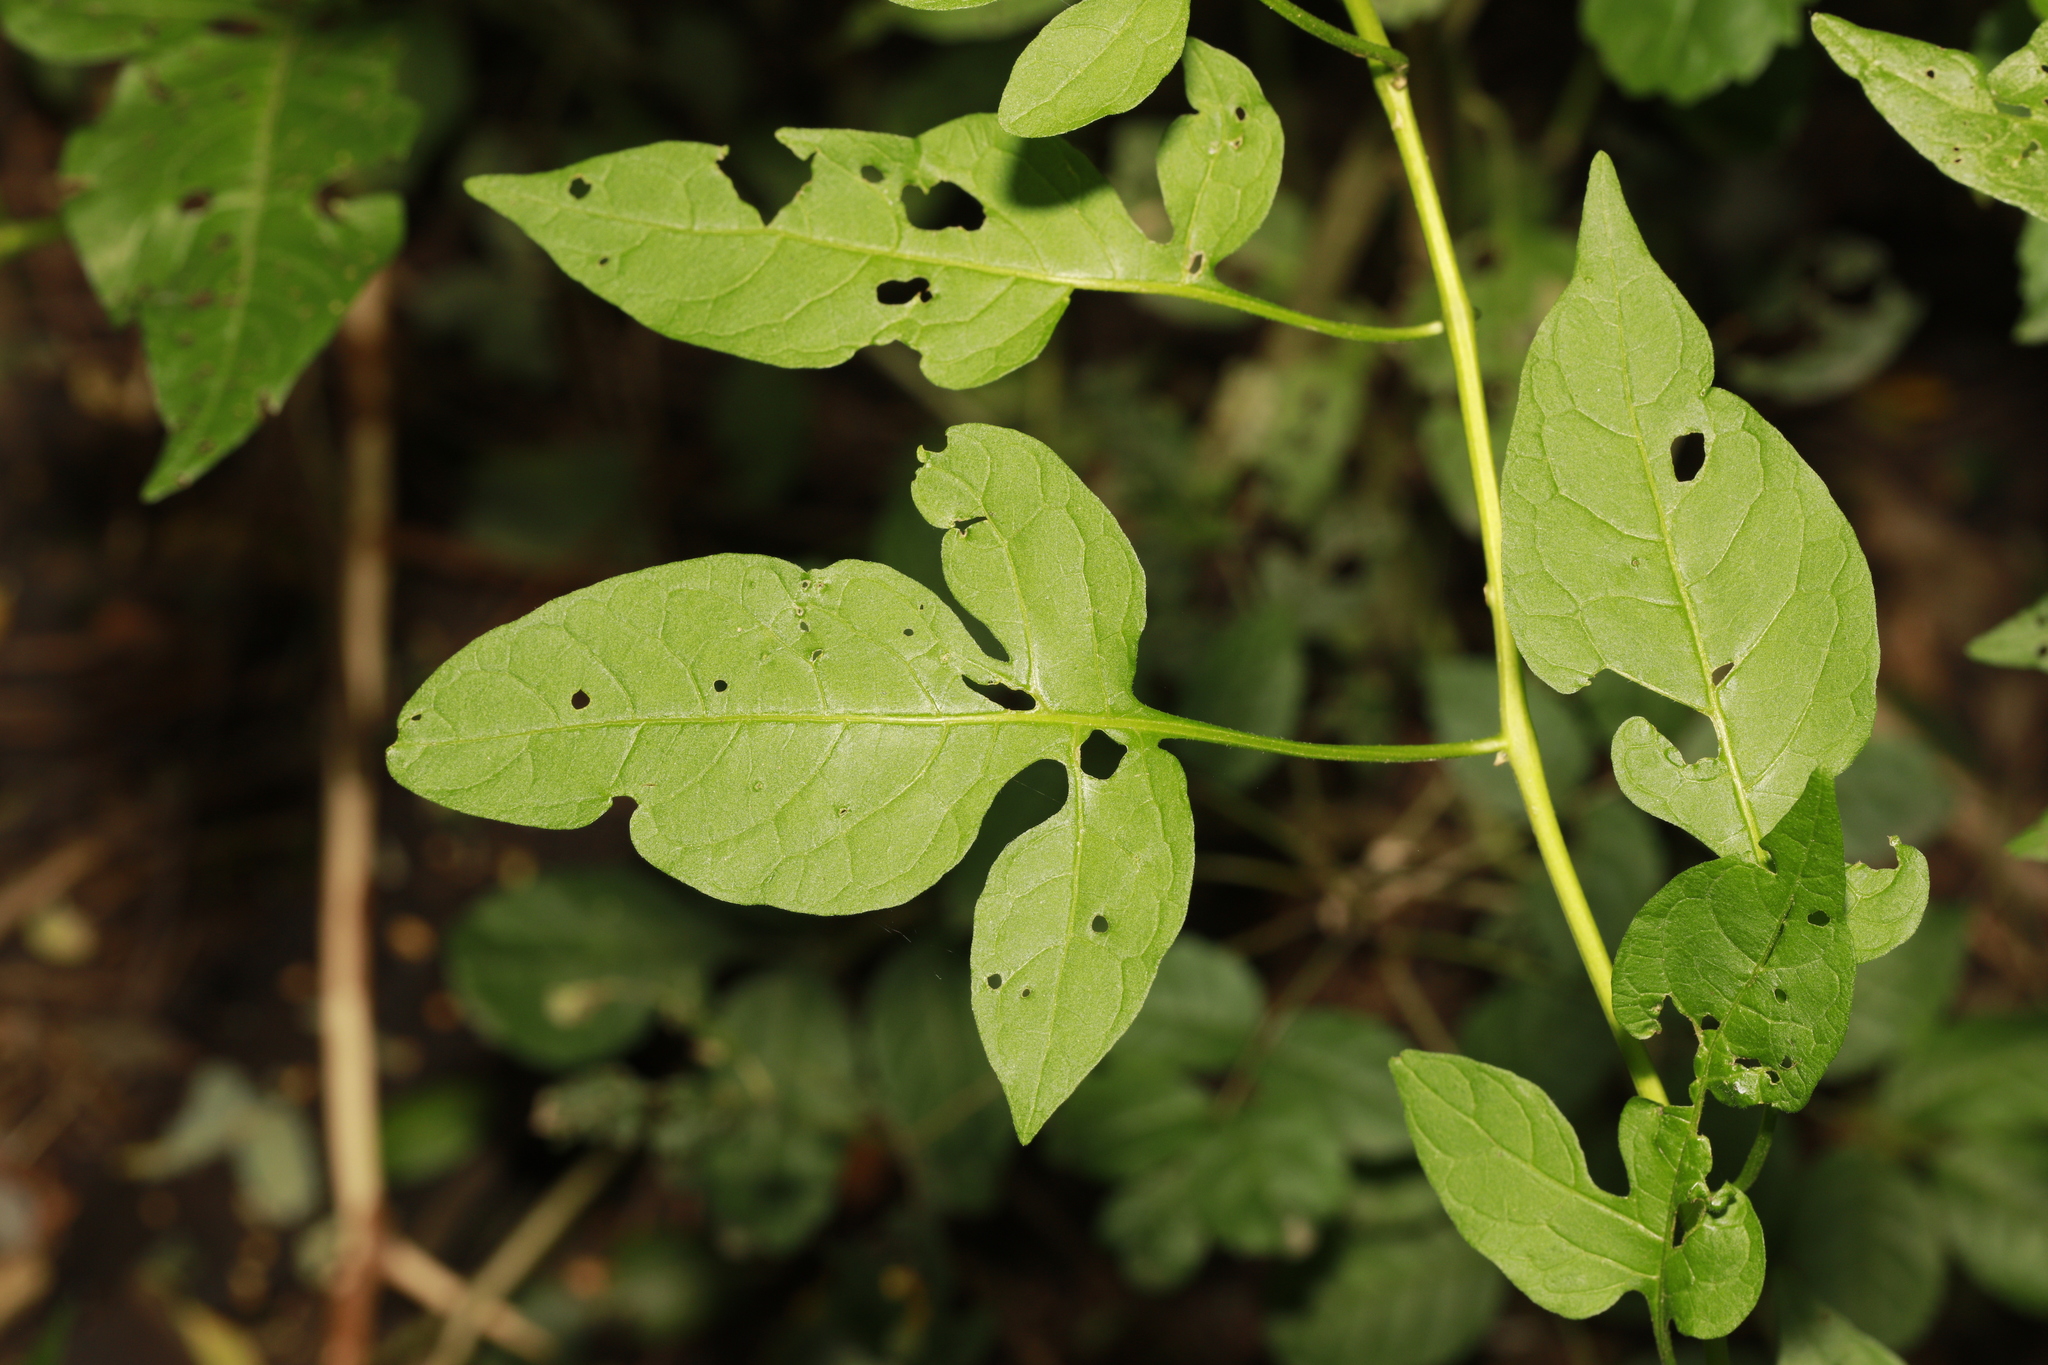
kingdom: Plantae
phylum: Tracheophyta
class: Magnoliopsida
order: Solanales
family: Solanaceae
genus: Solanum
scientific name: Solanum dulcamara
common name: Climbing nightshade
